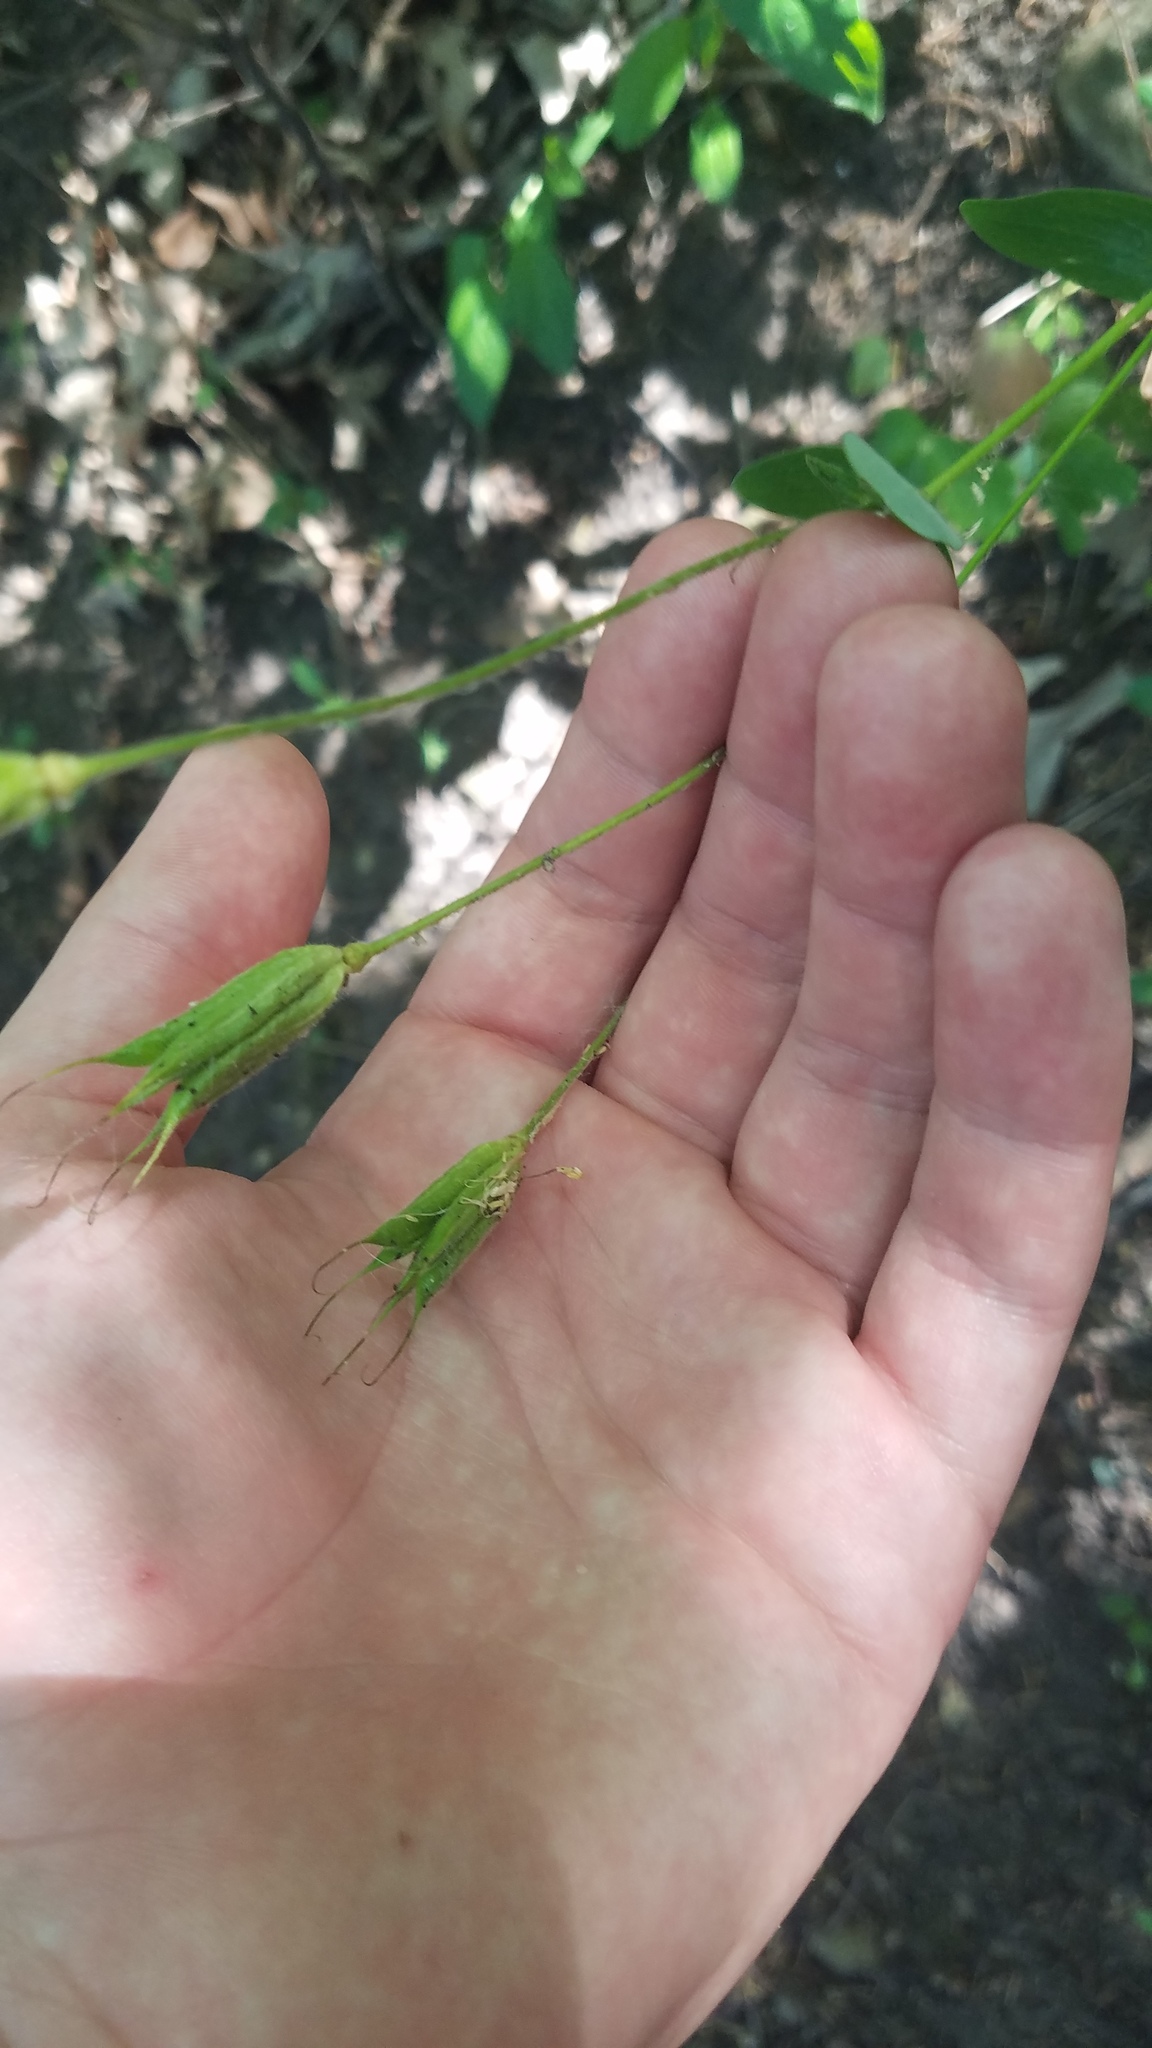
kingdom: Plantae
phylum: Tracheophyta
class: Magnoliopsida
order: Ranunculales
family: Ranunculaceae
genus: Aquilegia
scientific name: Aquilegia canadensis
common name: American columbine
